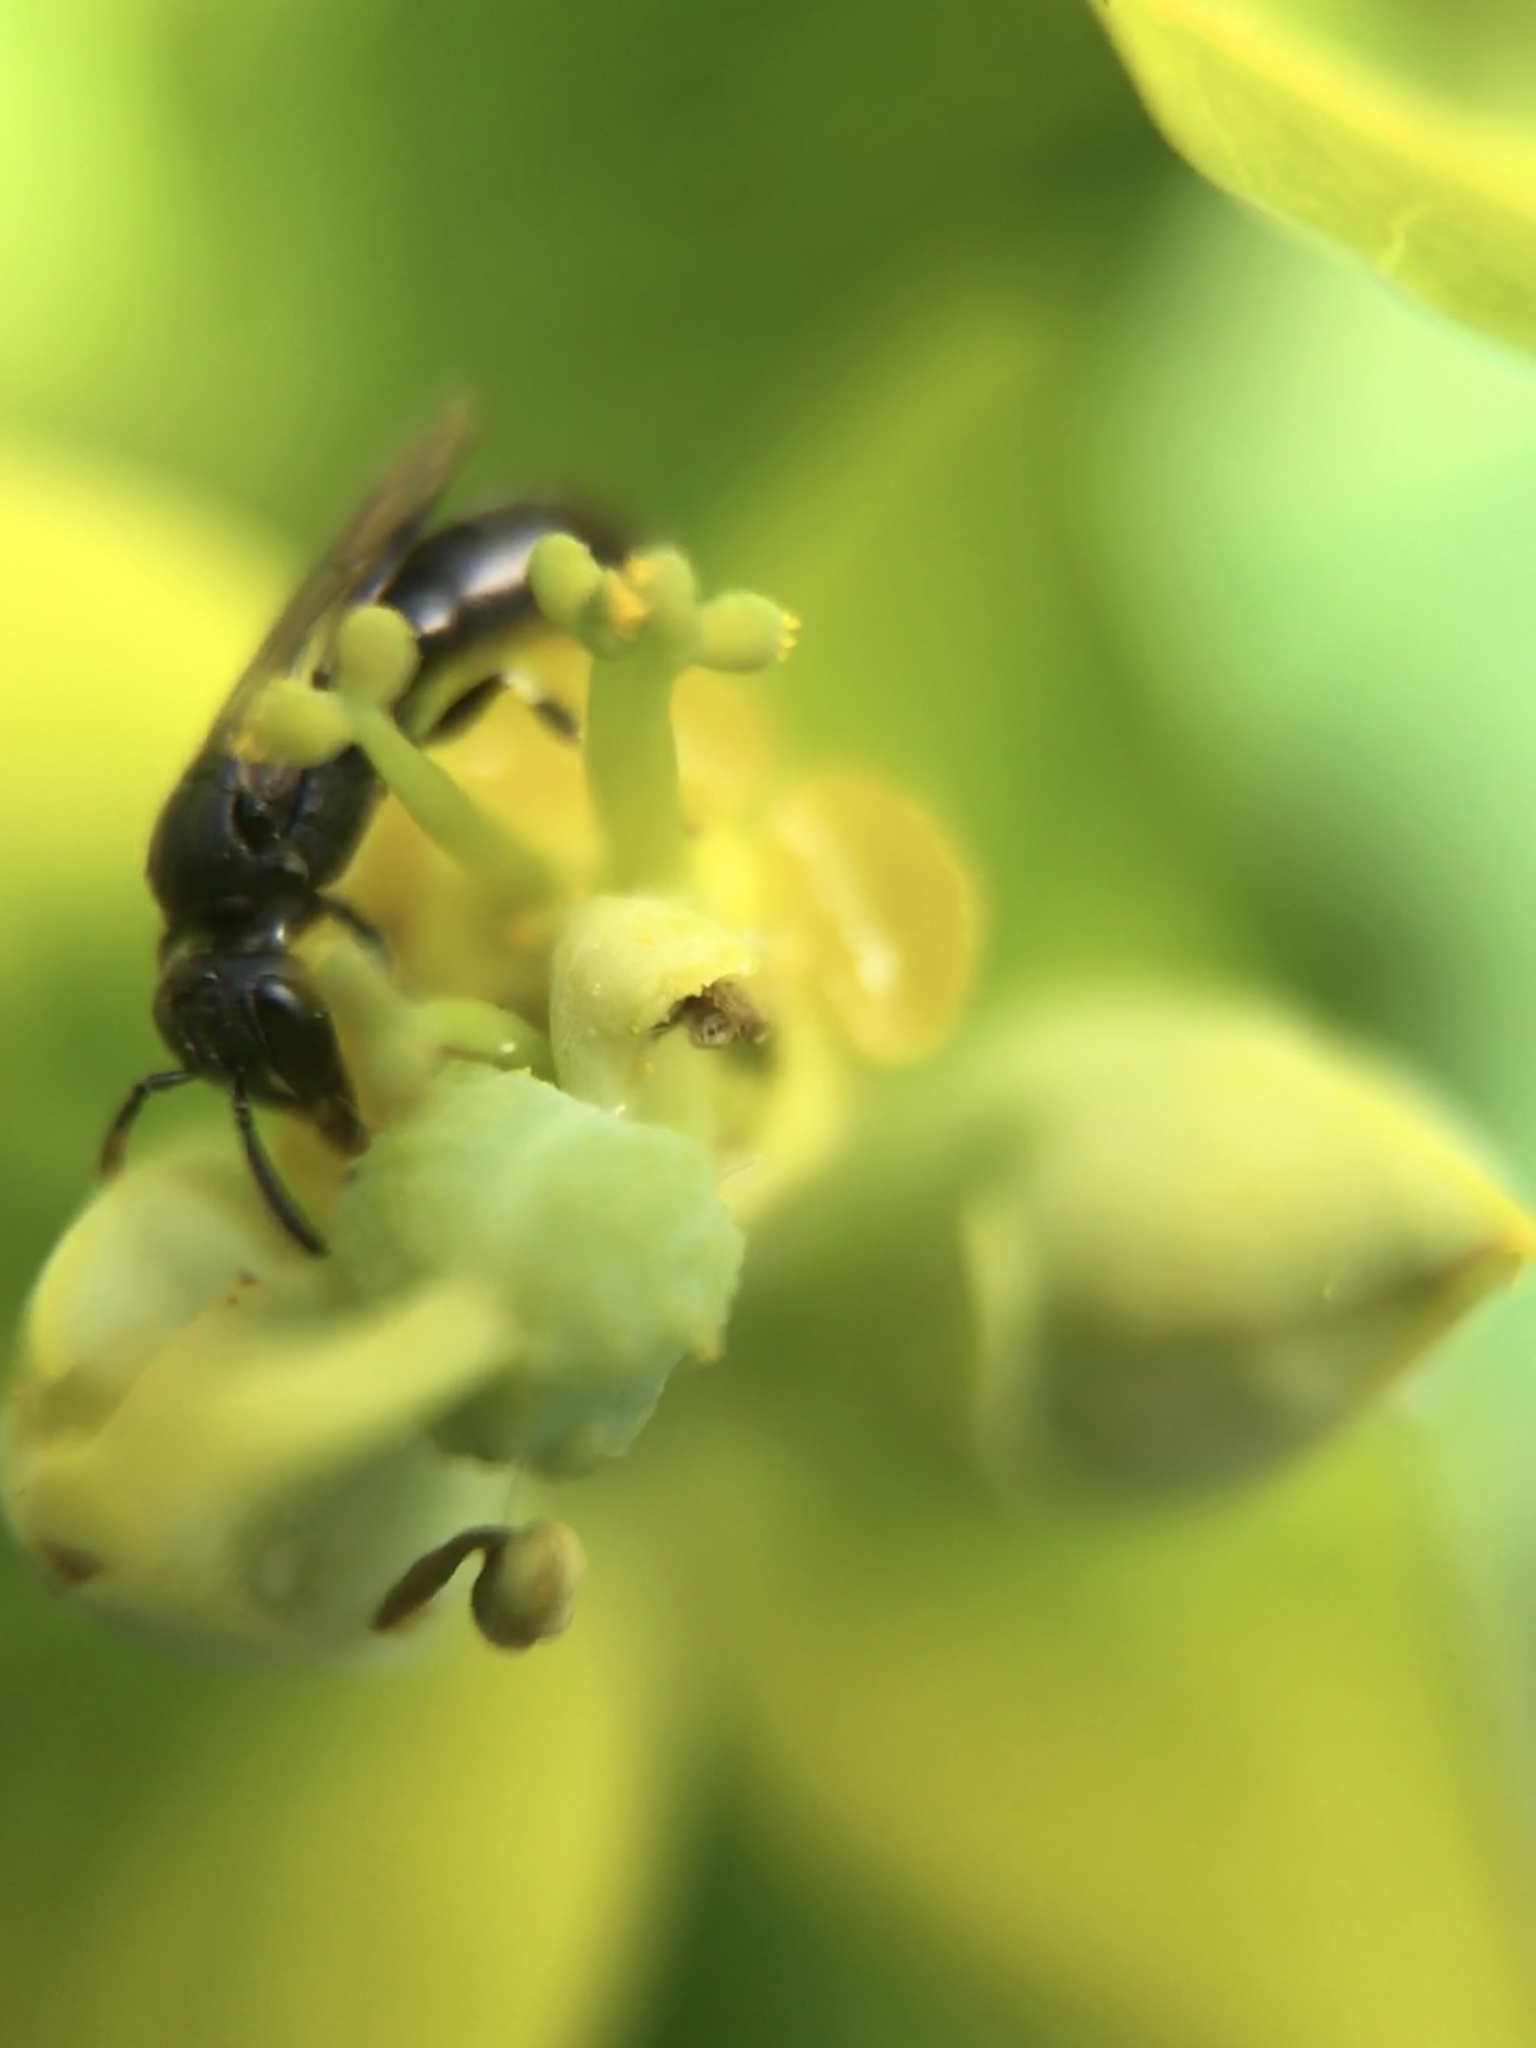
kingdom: Animalia
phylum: Arthropoda
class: Insecta
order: Hymenoptera
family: Colletidae
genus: Hylaeus
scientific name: Hylaeus
